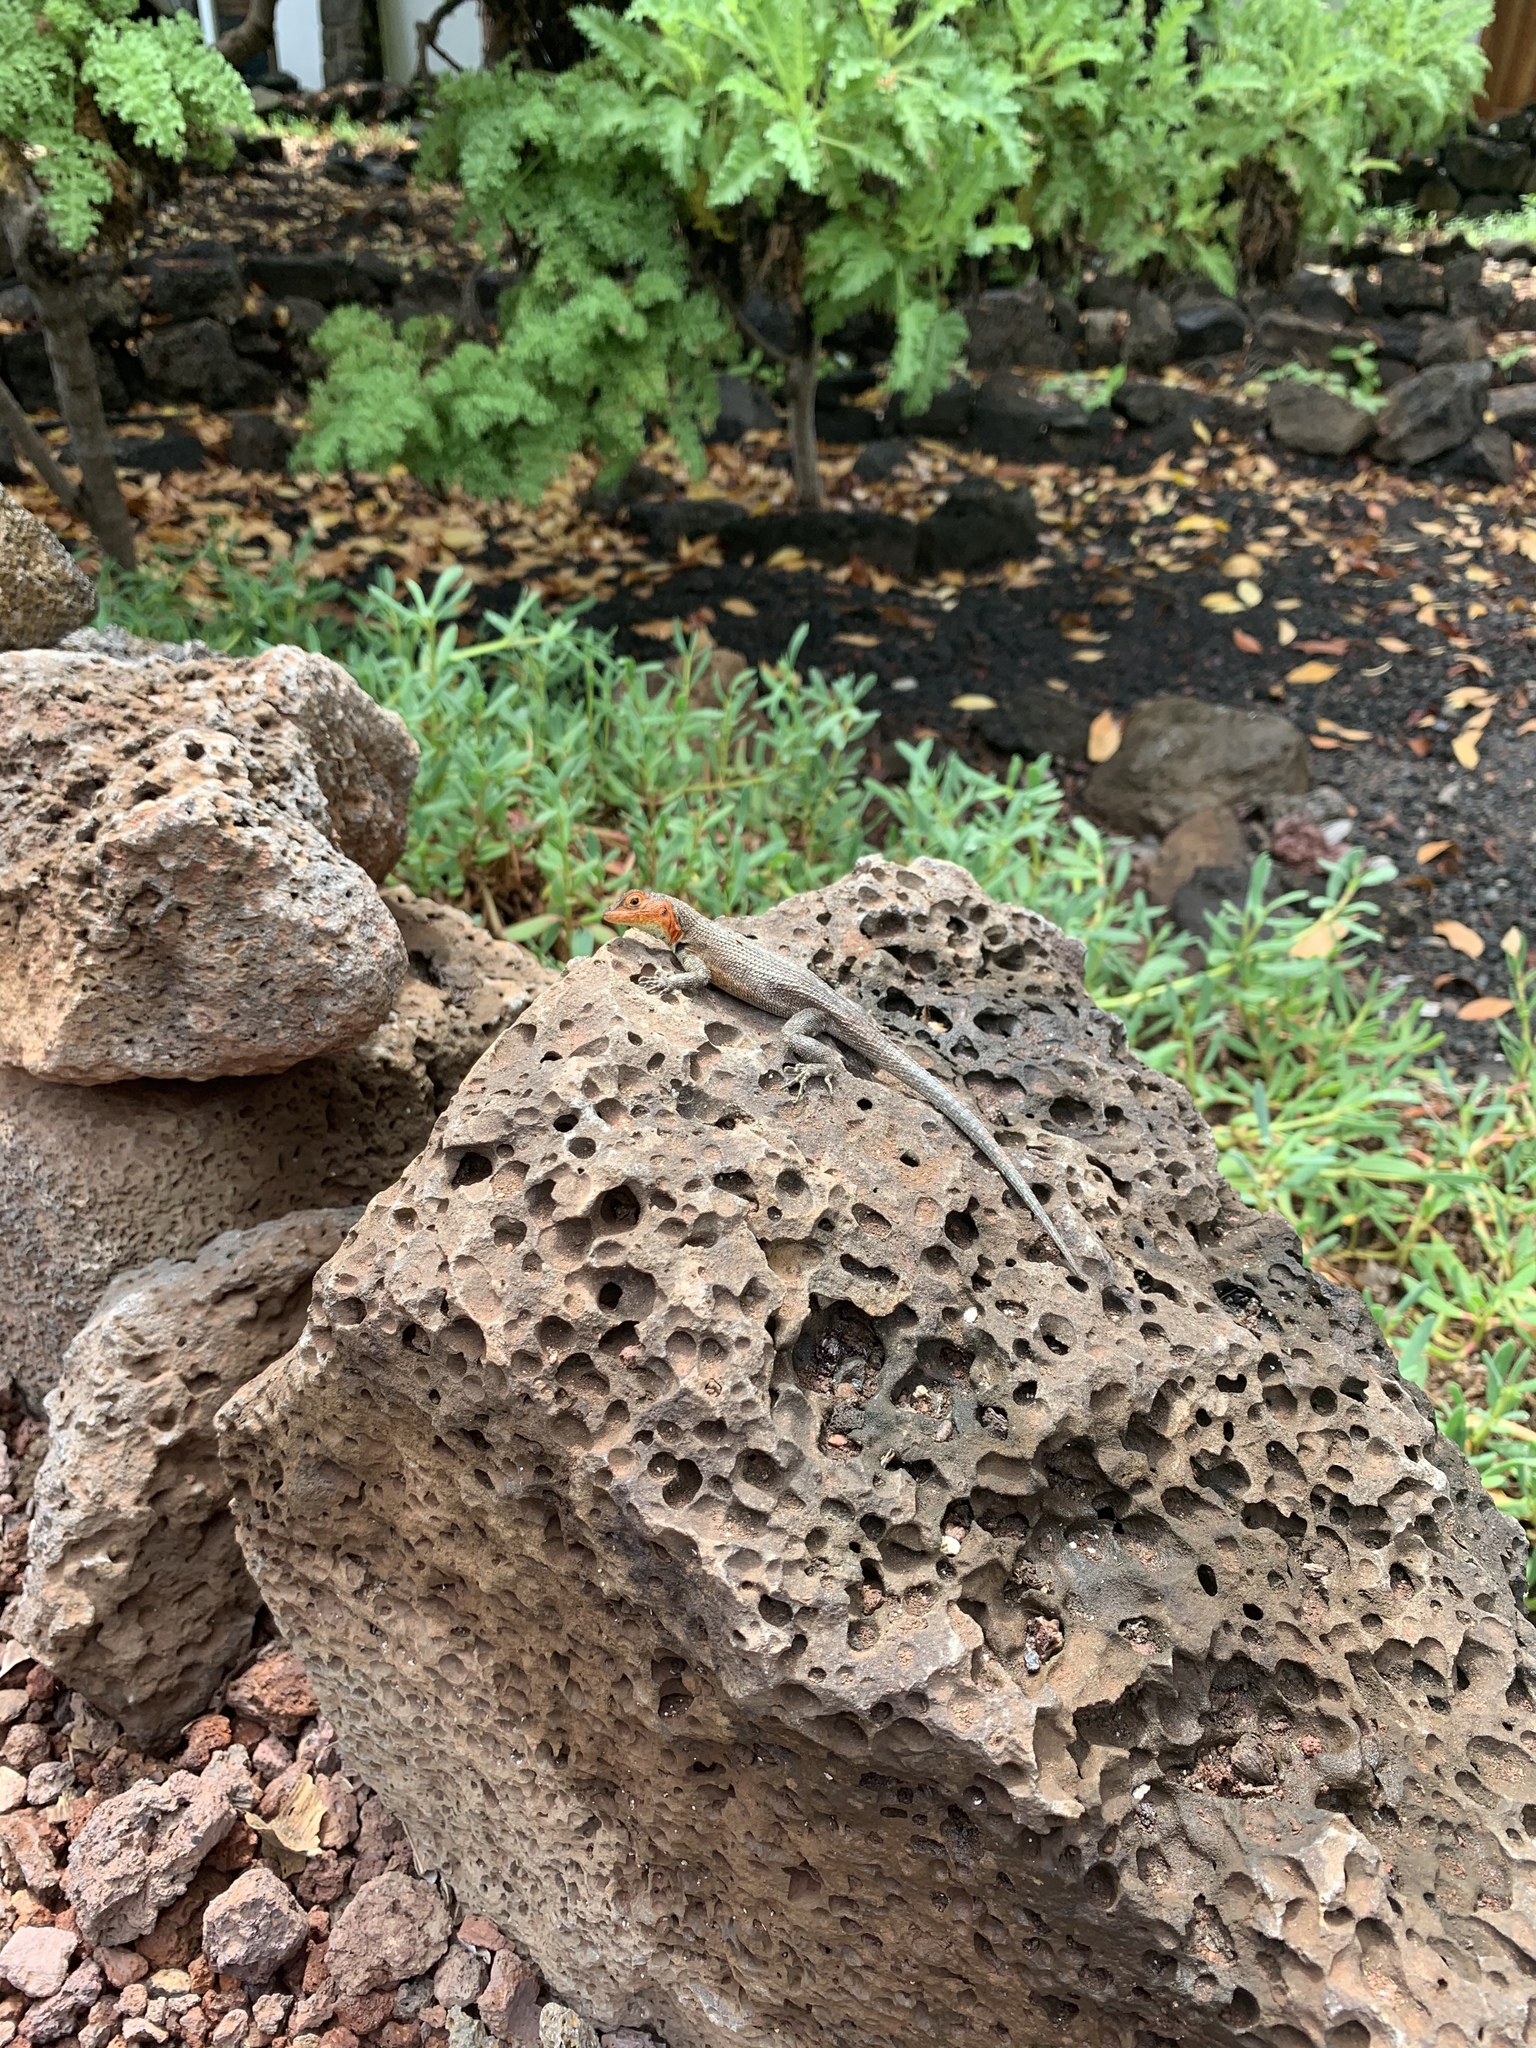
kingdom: Animalia
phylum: Chordata
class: Squamata
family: Tropiduridae
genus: Microlophus
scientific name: Microlophus indefatigabilis
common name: Galapagos lava lizard
